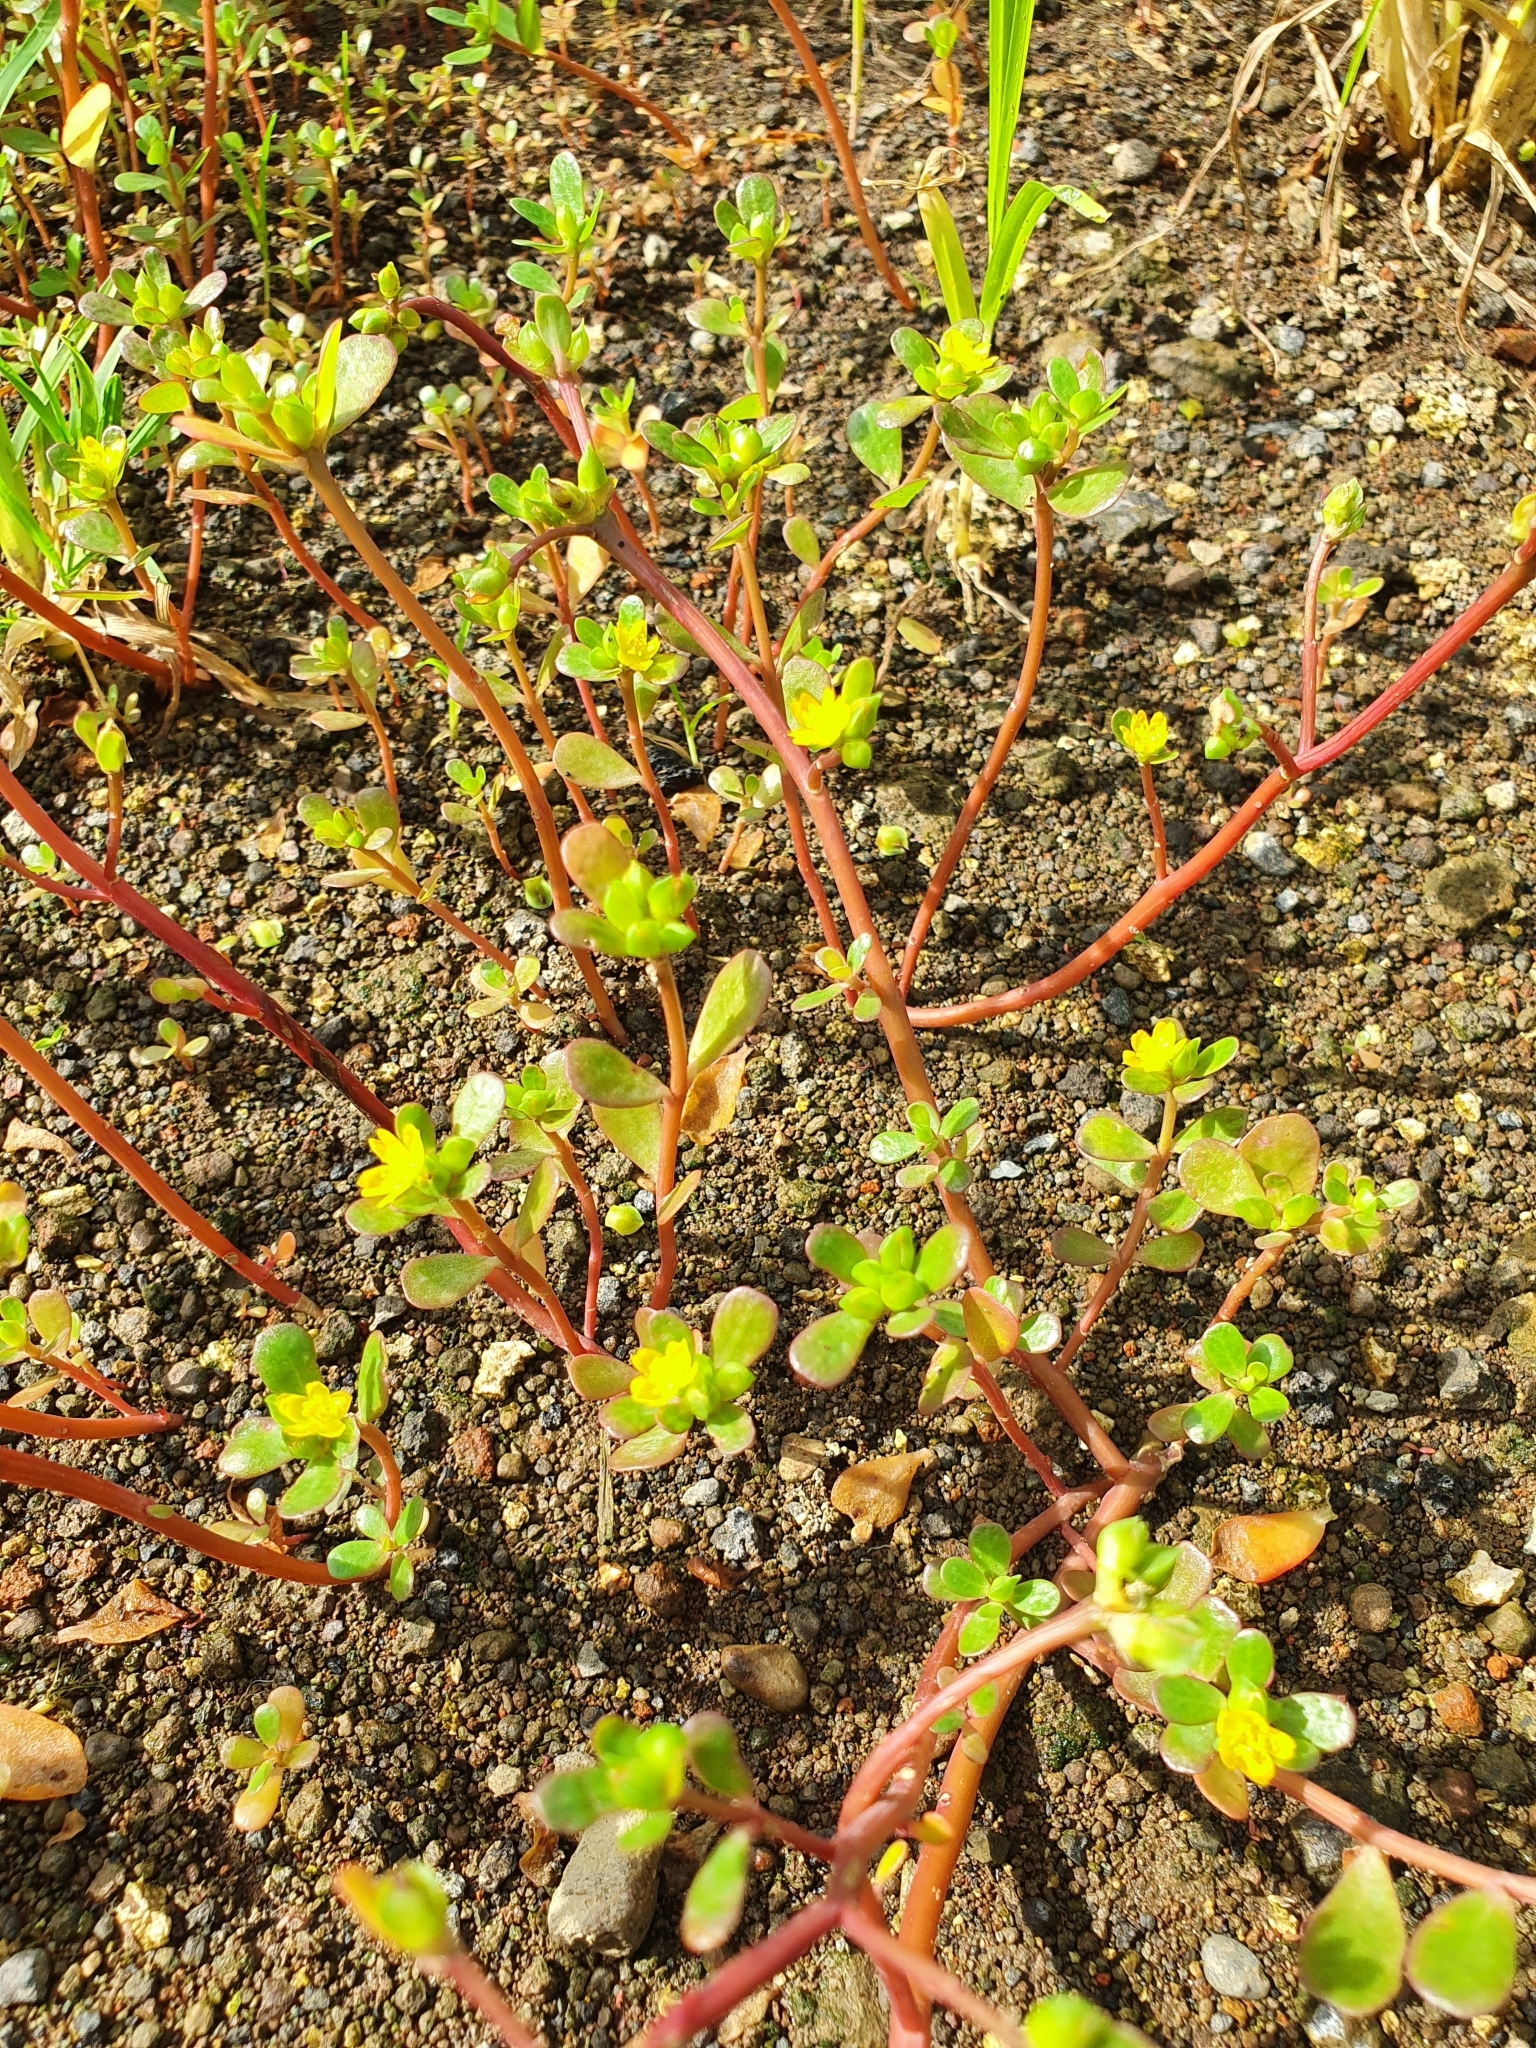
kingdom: Plantae
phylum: Tracheophyta
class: Magnoliopsida
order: Caryophyllales
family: Portulacaceae
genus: Portulaca
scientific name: Portulaca oleracea
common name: Common purslane
